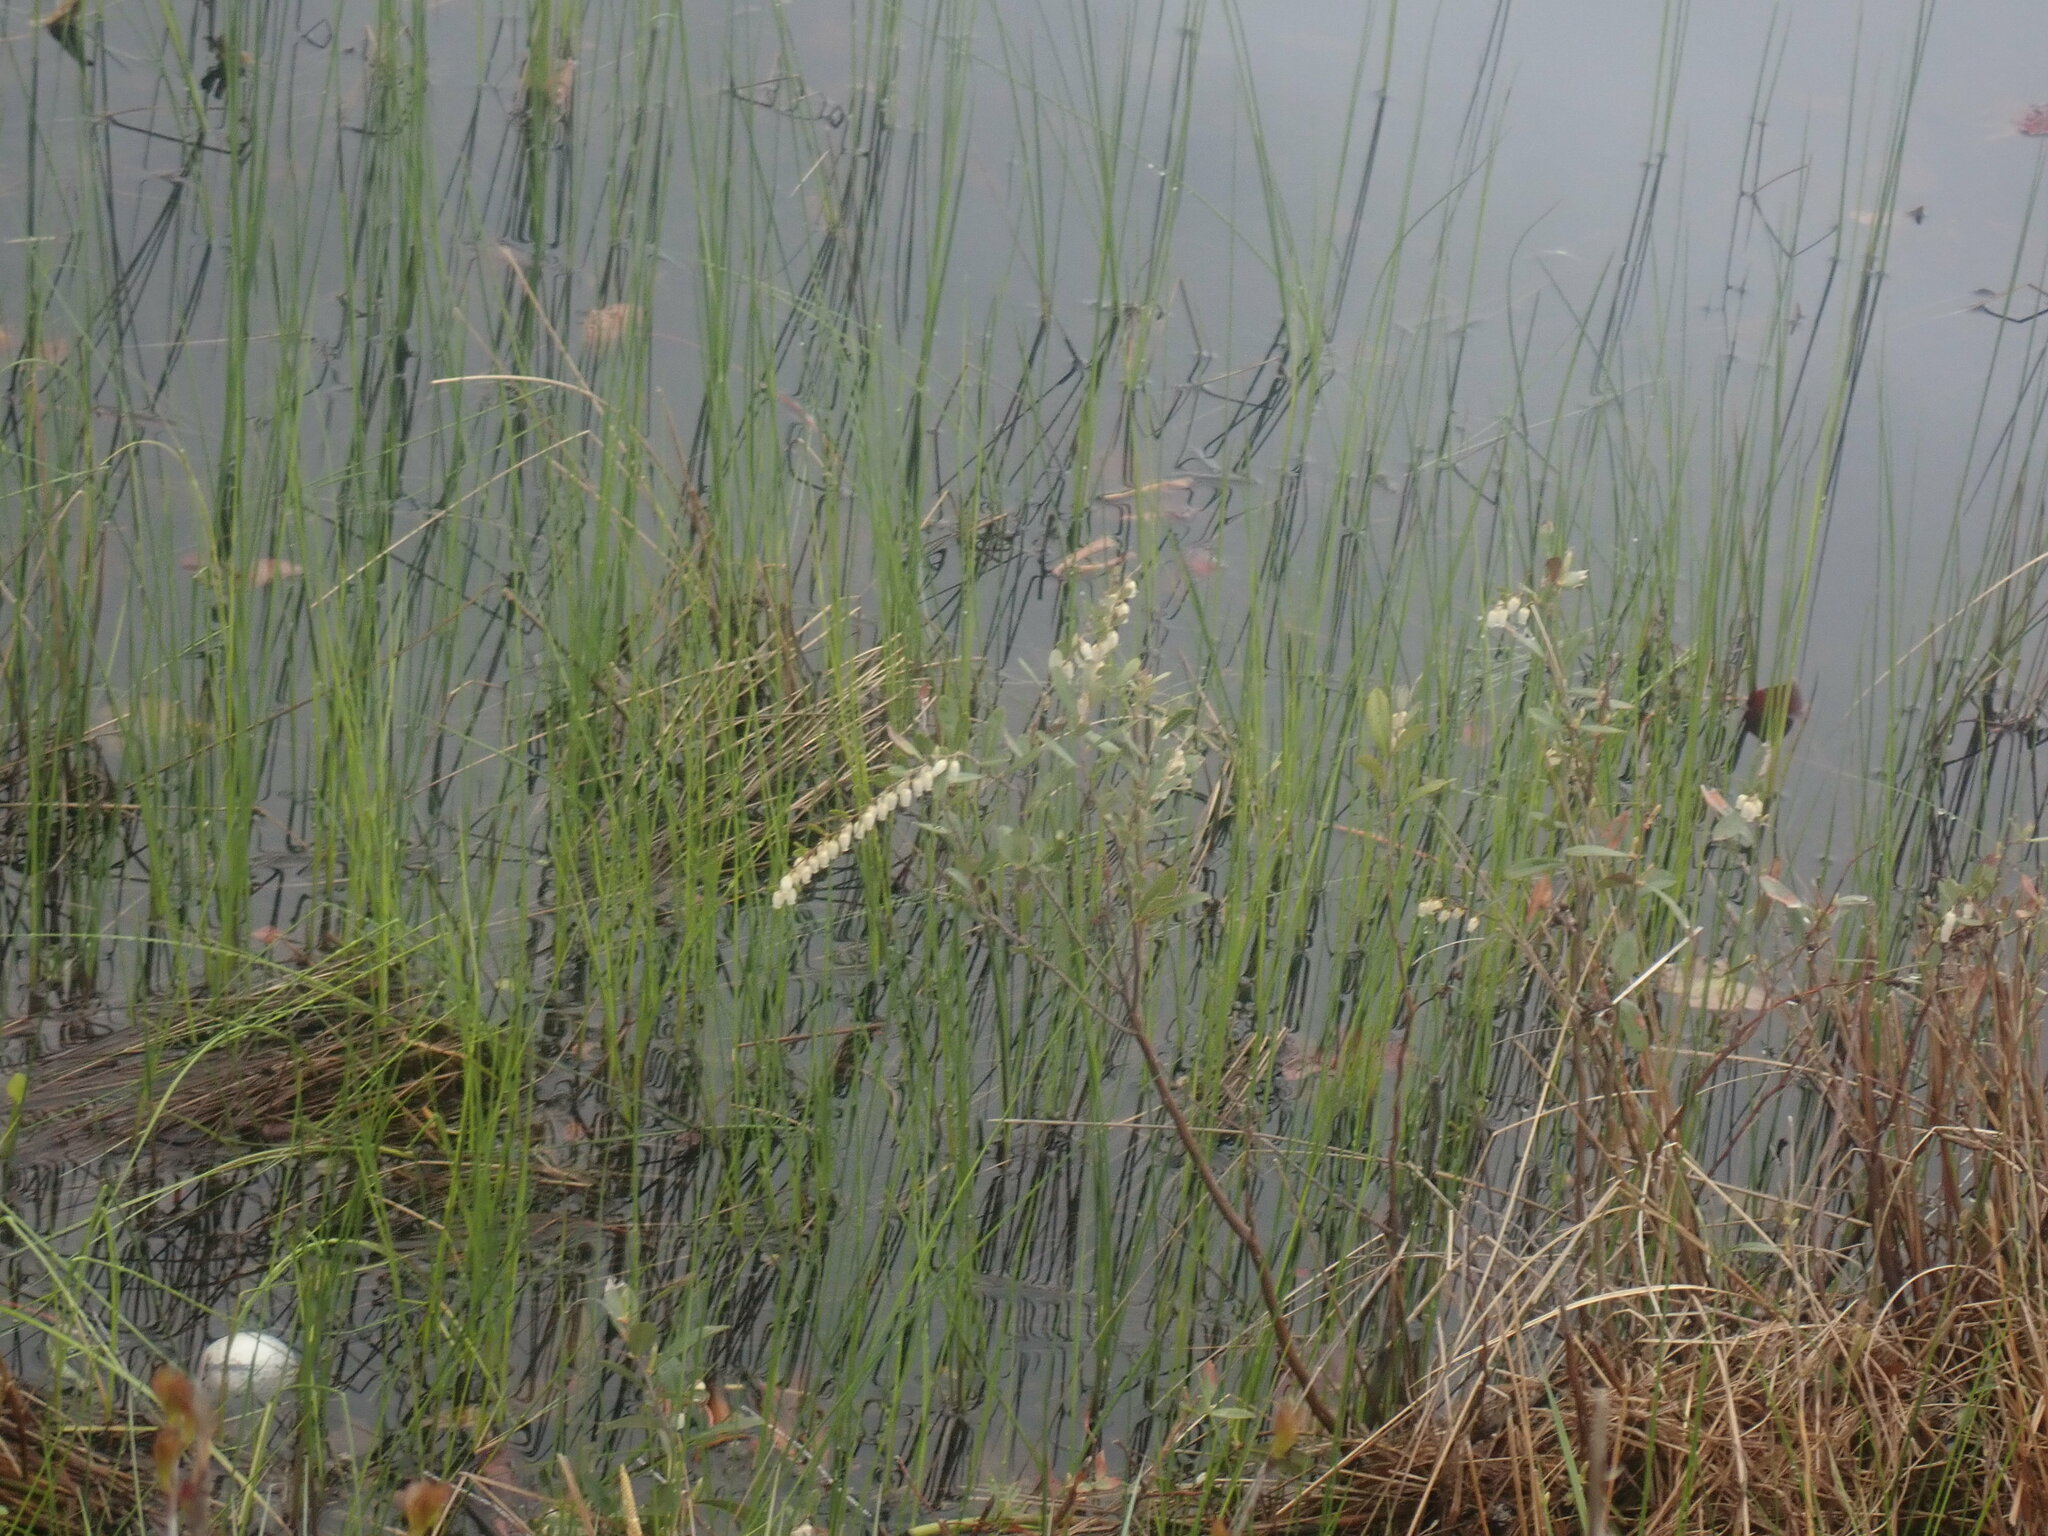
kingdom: Plantae
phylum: Tracheophyta
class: Magnoliopsida
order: Ericales
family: Ericaceae
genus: Chamaedaphne
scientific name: Chamaedaphne calyculata
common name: Leatherleaf
